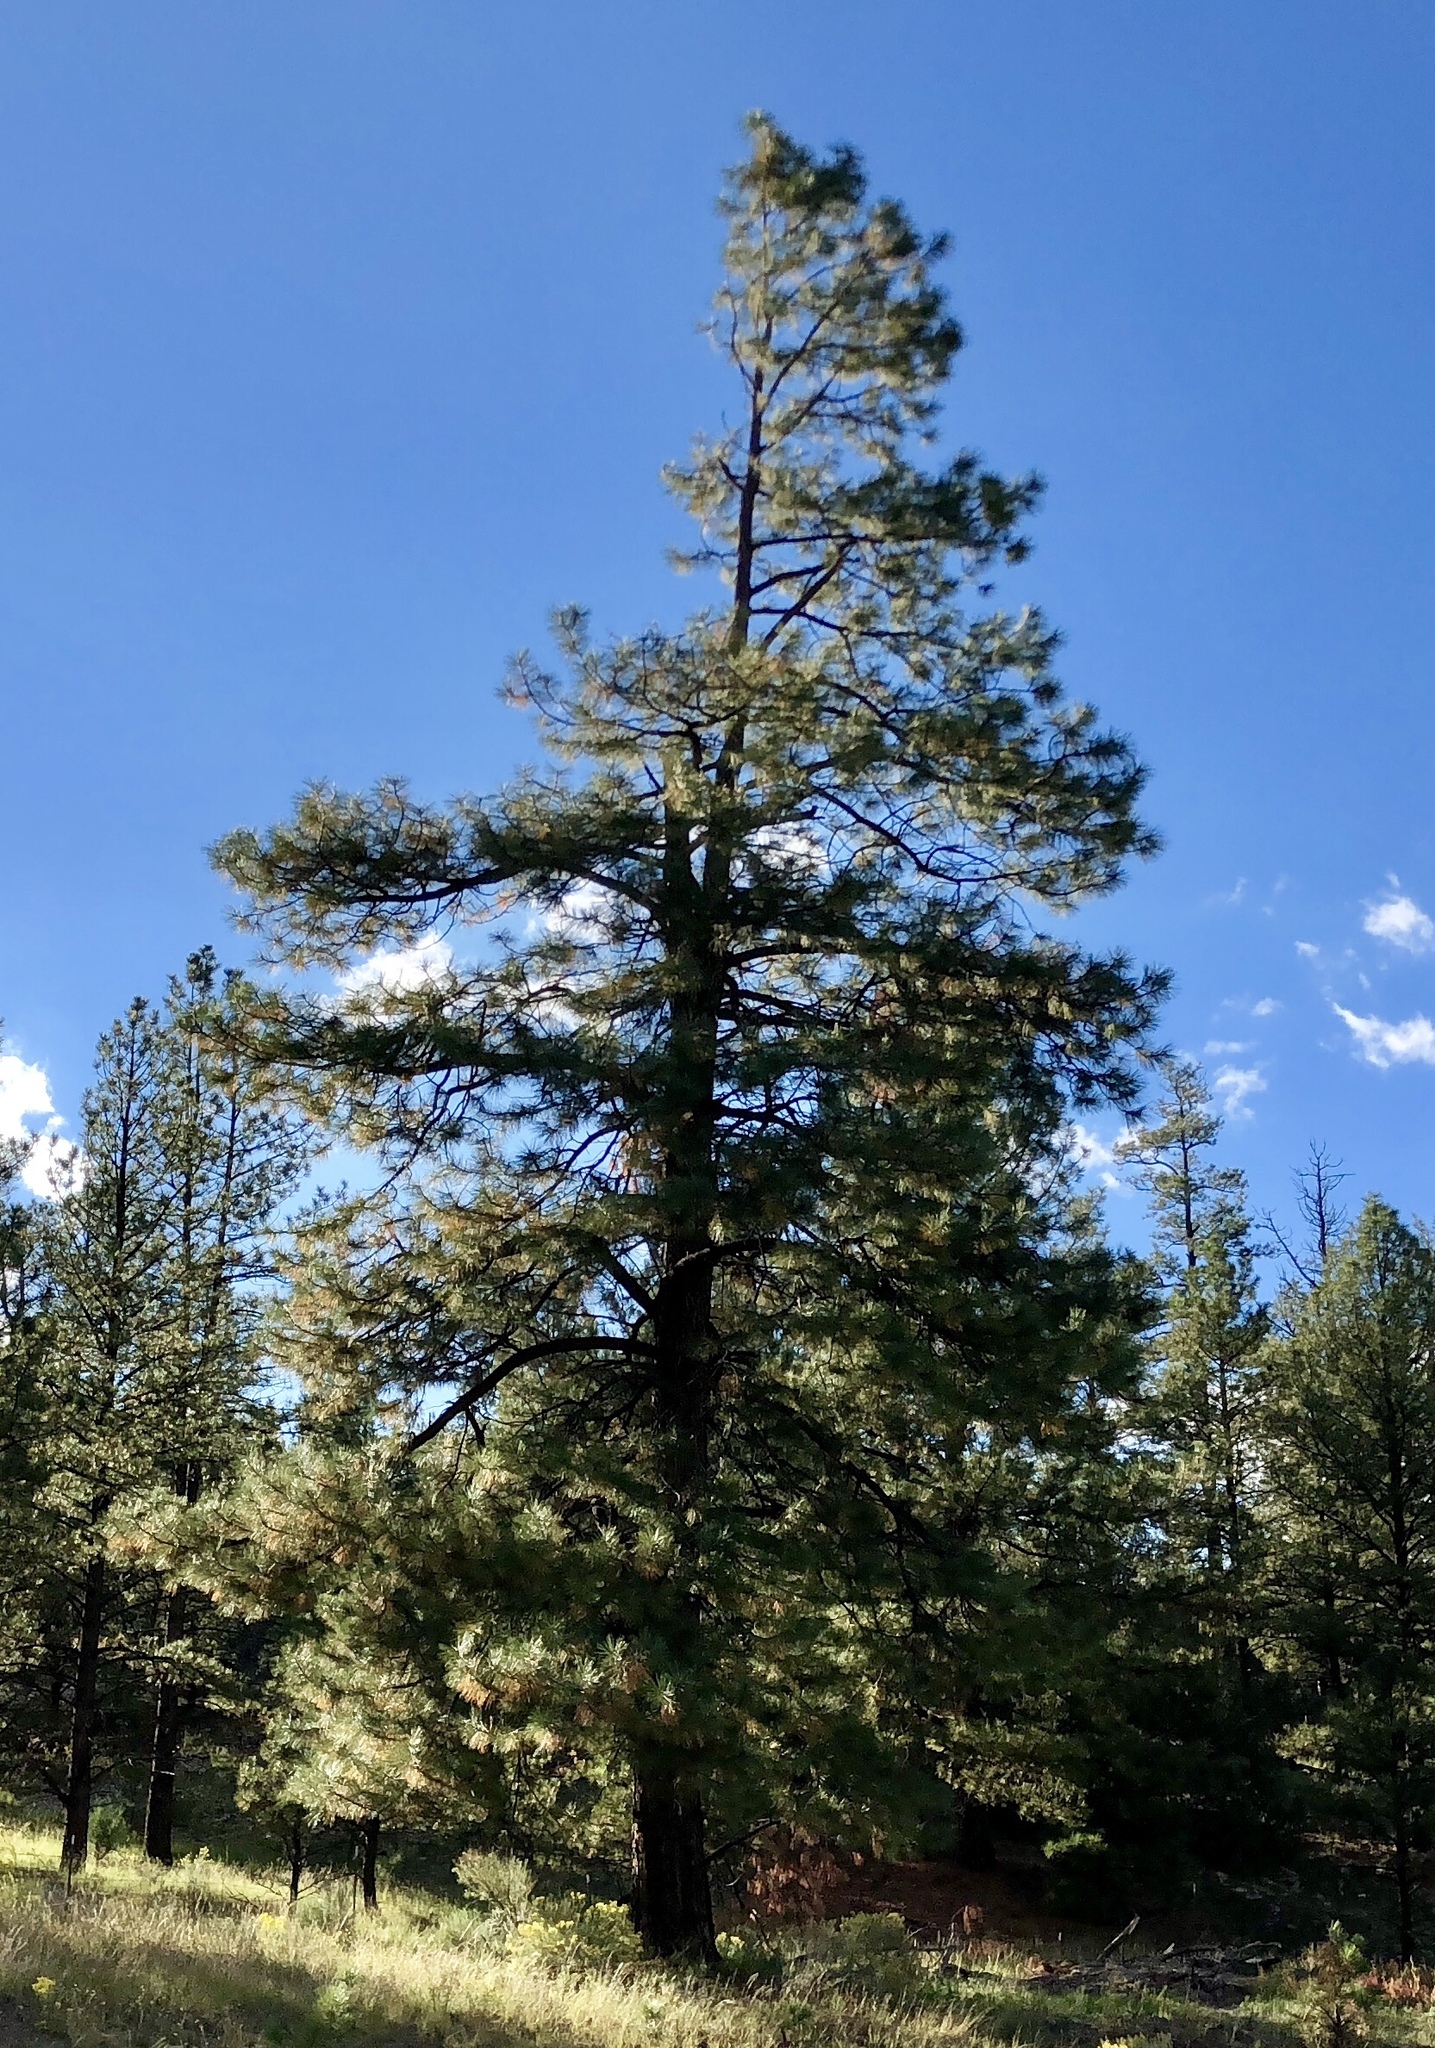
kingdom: Plantae
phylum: Tracheophyta
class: Pinopsida
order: Pinales
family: Pinaceae
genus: Pinus
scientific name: Pinus ponderosa
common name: Western yellow-pine
